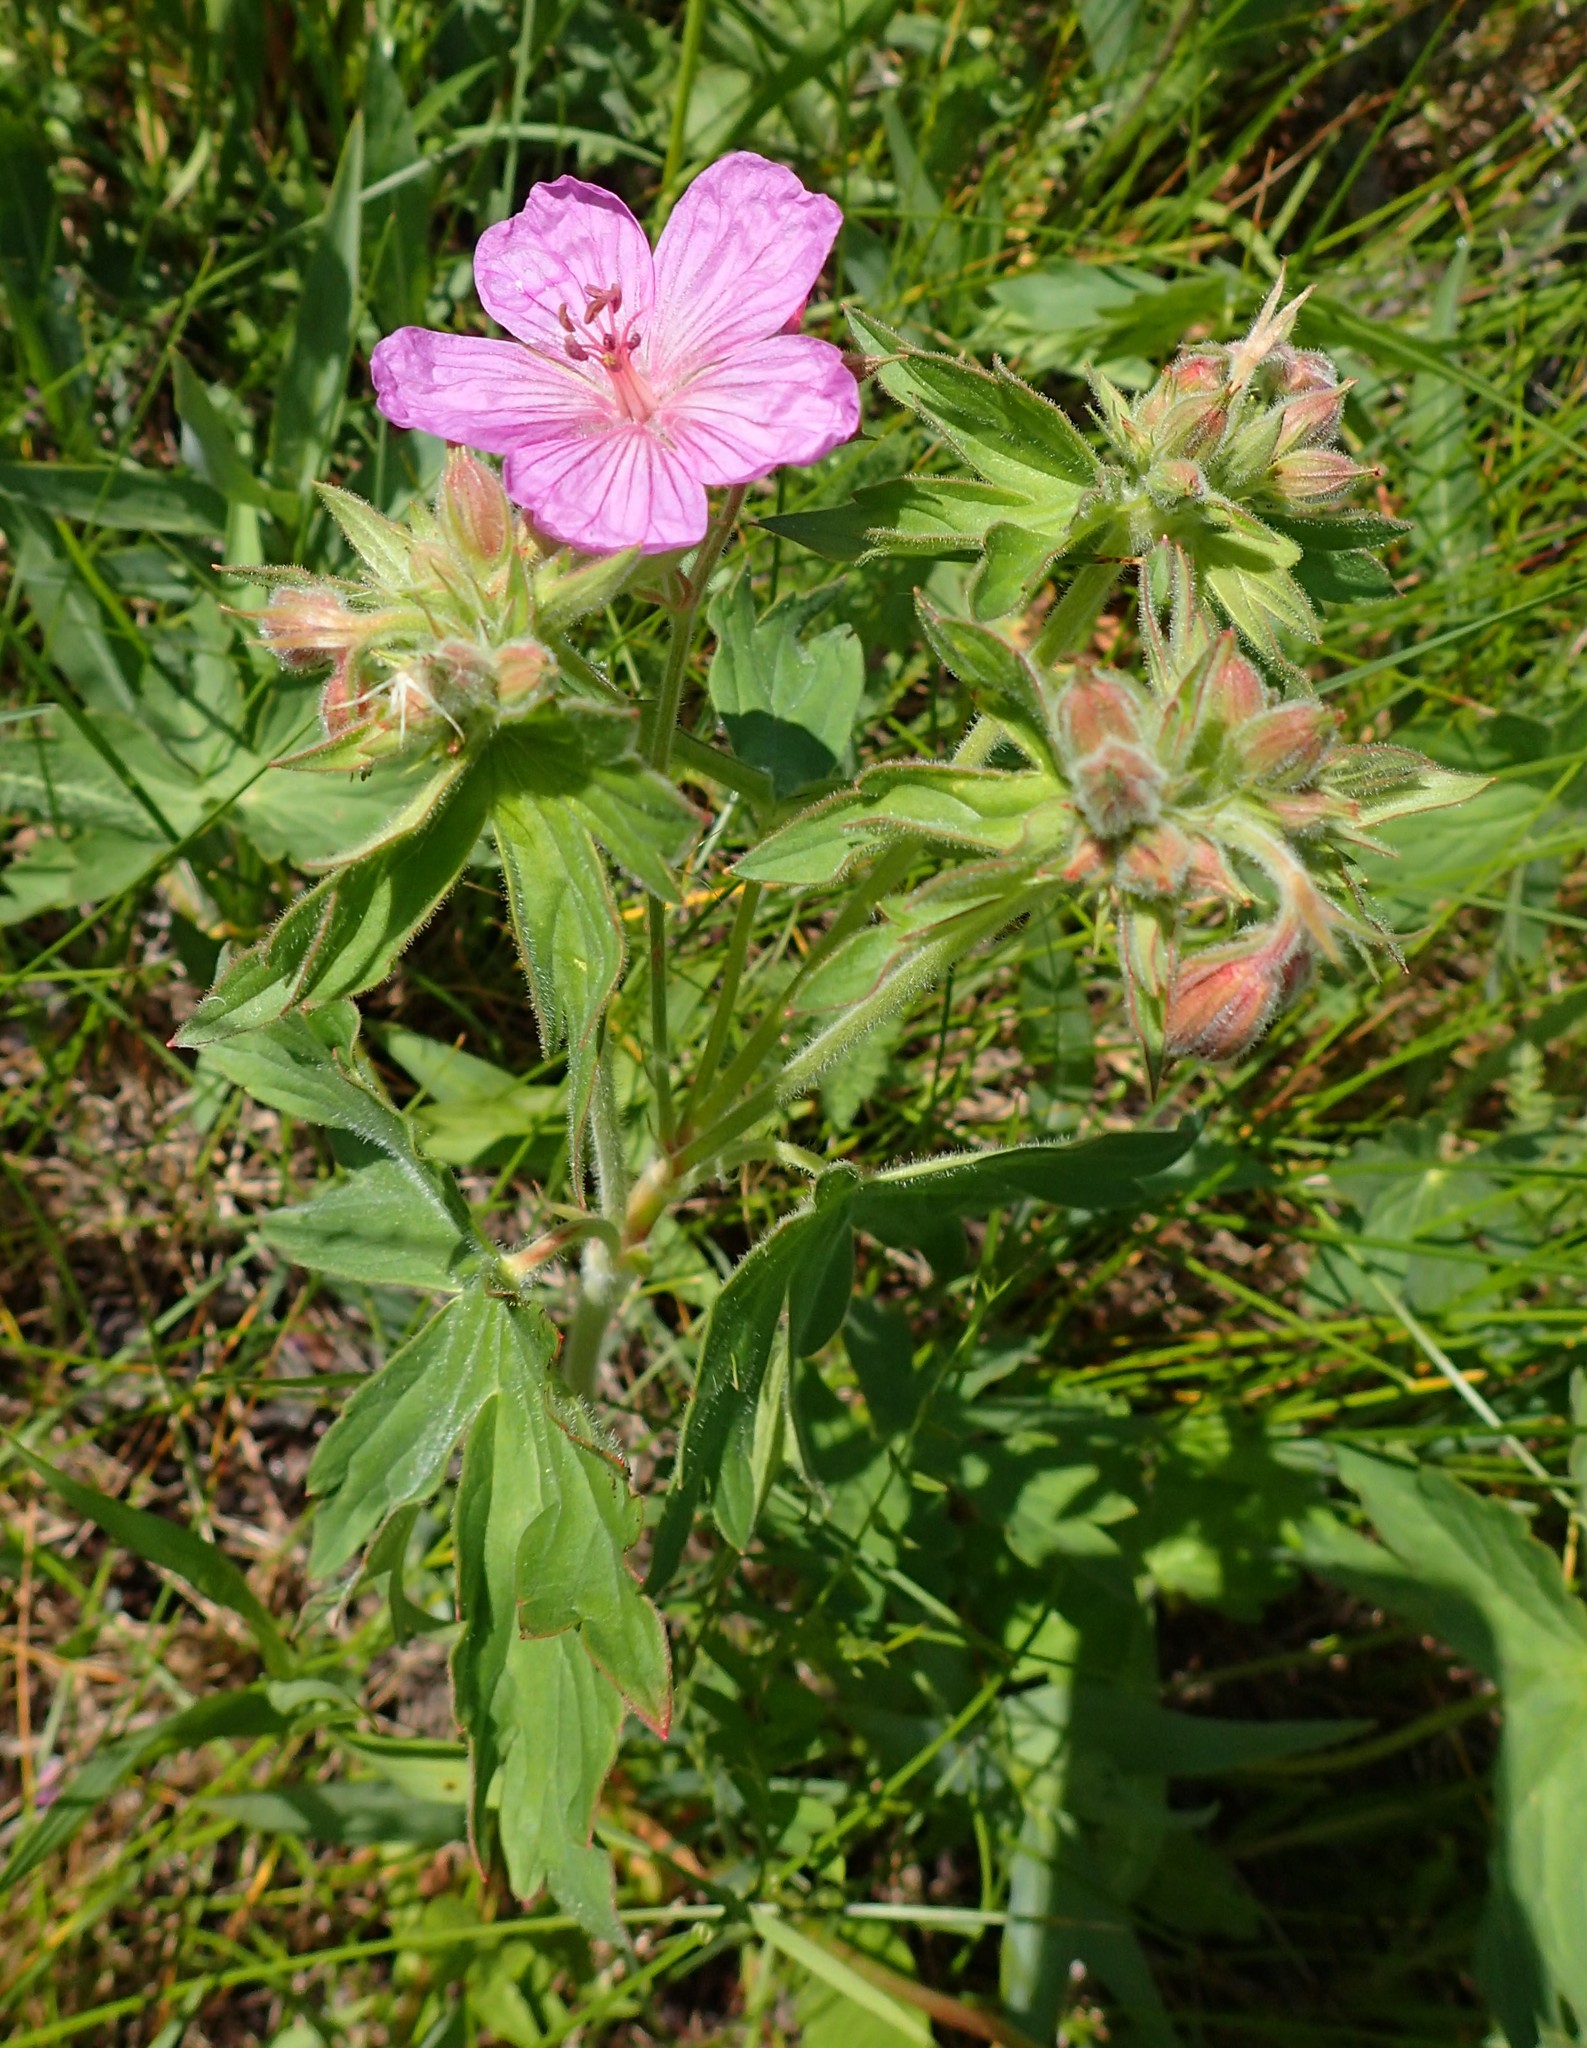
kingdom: Plantae
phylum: Tracheophyta
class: Magnoliopsida
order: Geraniales
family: Geraniaceae
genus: Geranium
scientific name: Geranium viscosissimum
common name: Purple geranium
